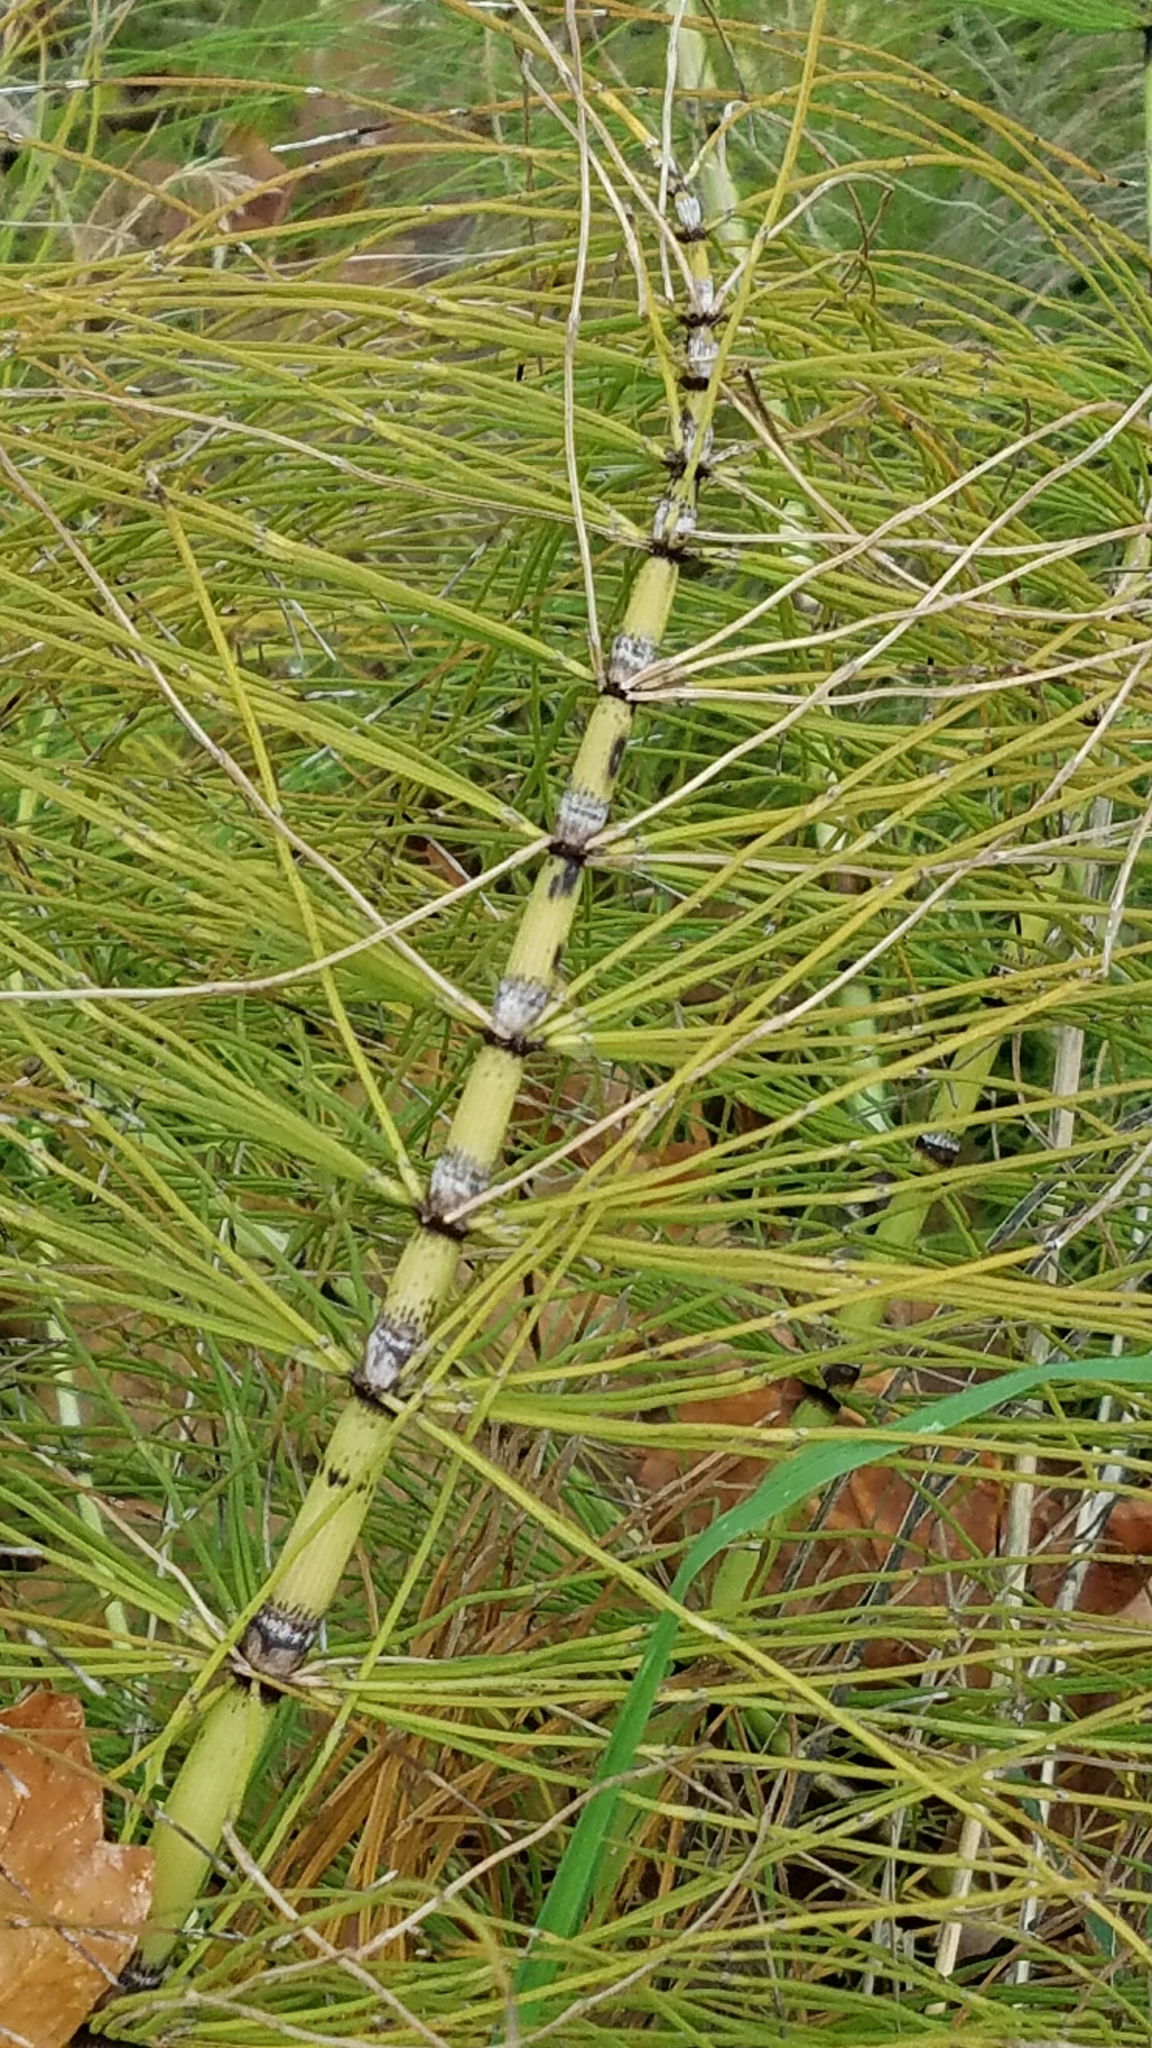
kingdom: Plantae
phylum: Tracheophyta
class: Polypodiopsida
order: Equisetales
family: Equisetaceae
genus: Equisetum
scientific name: Equisetum telmateia
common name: Great horsetail
